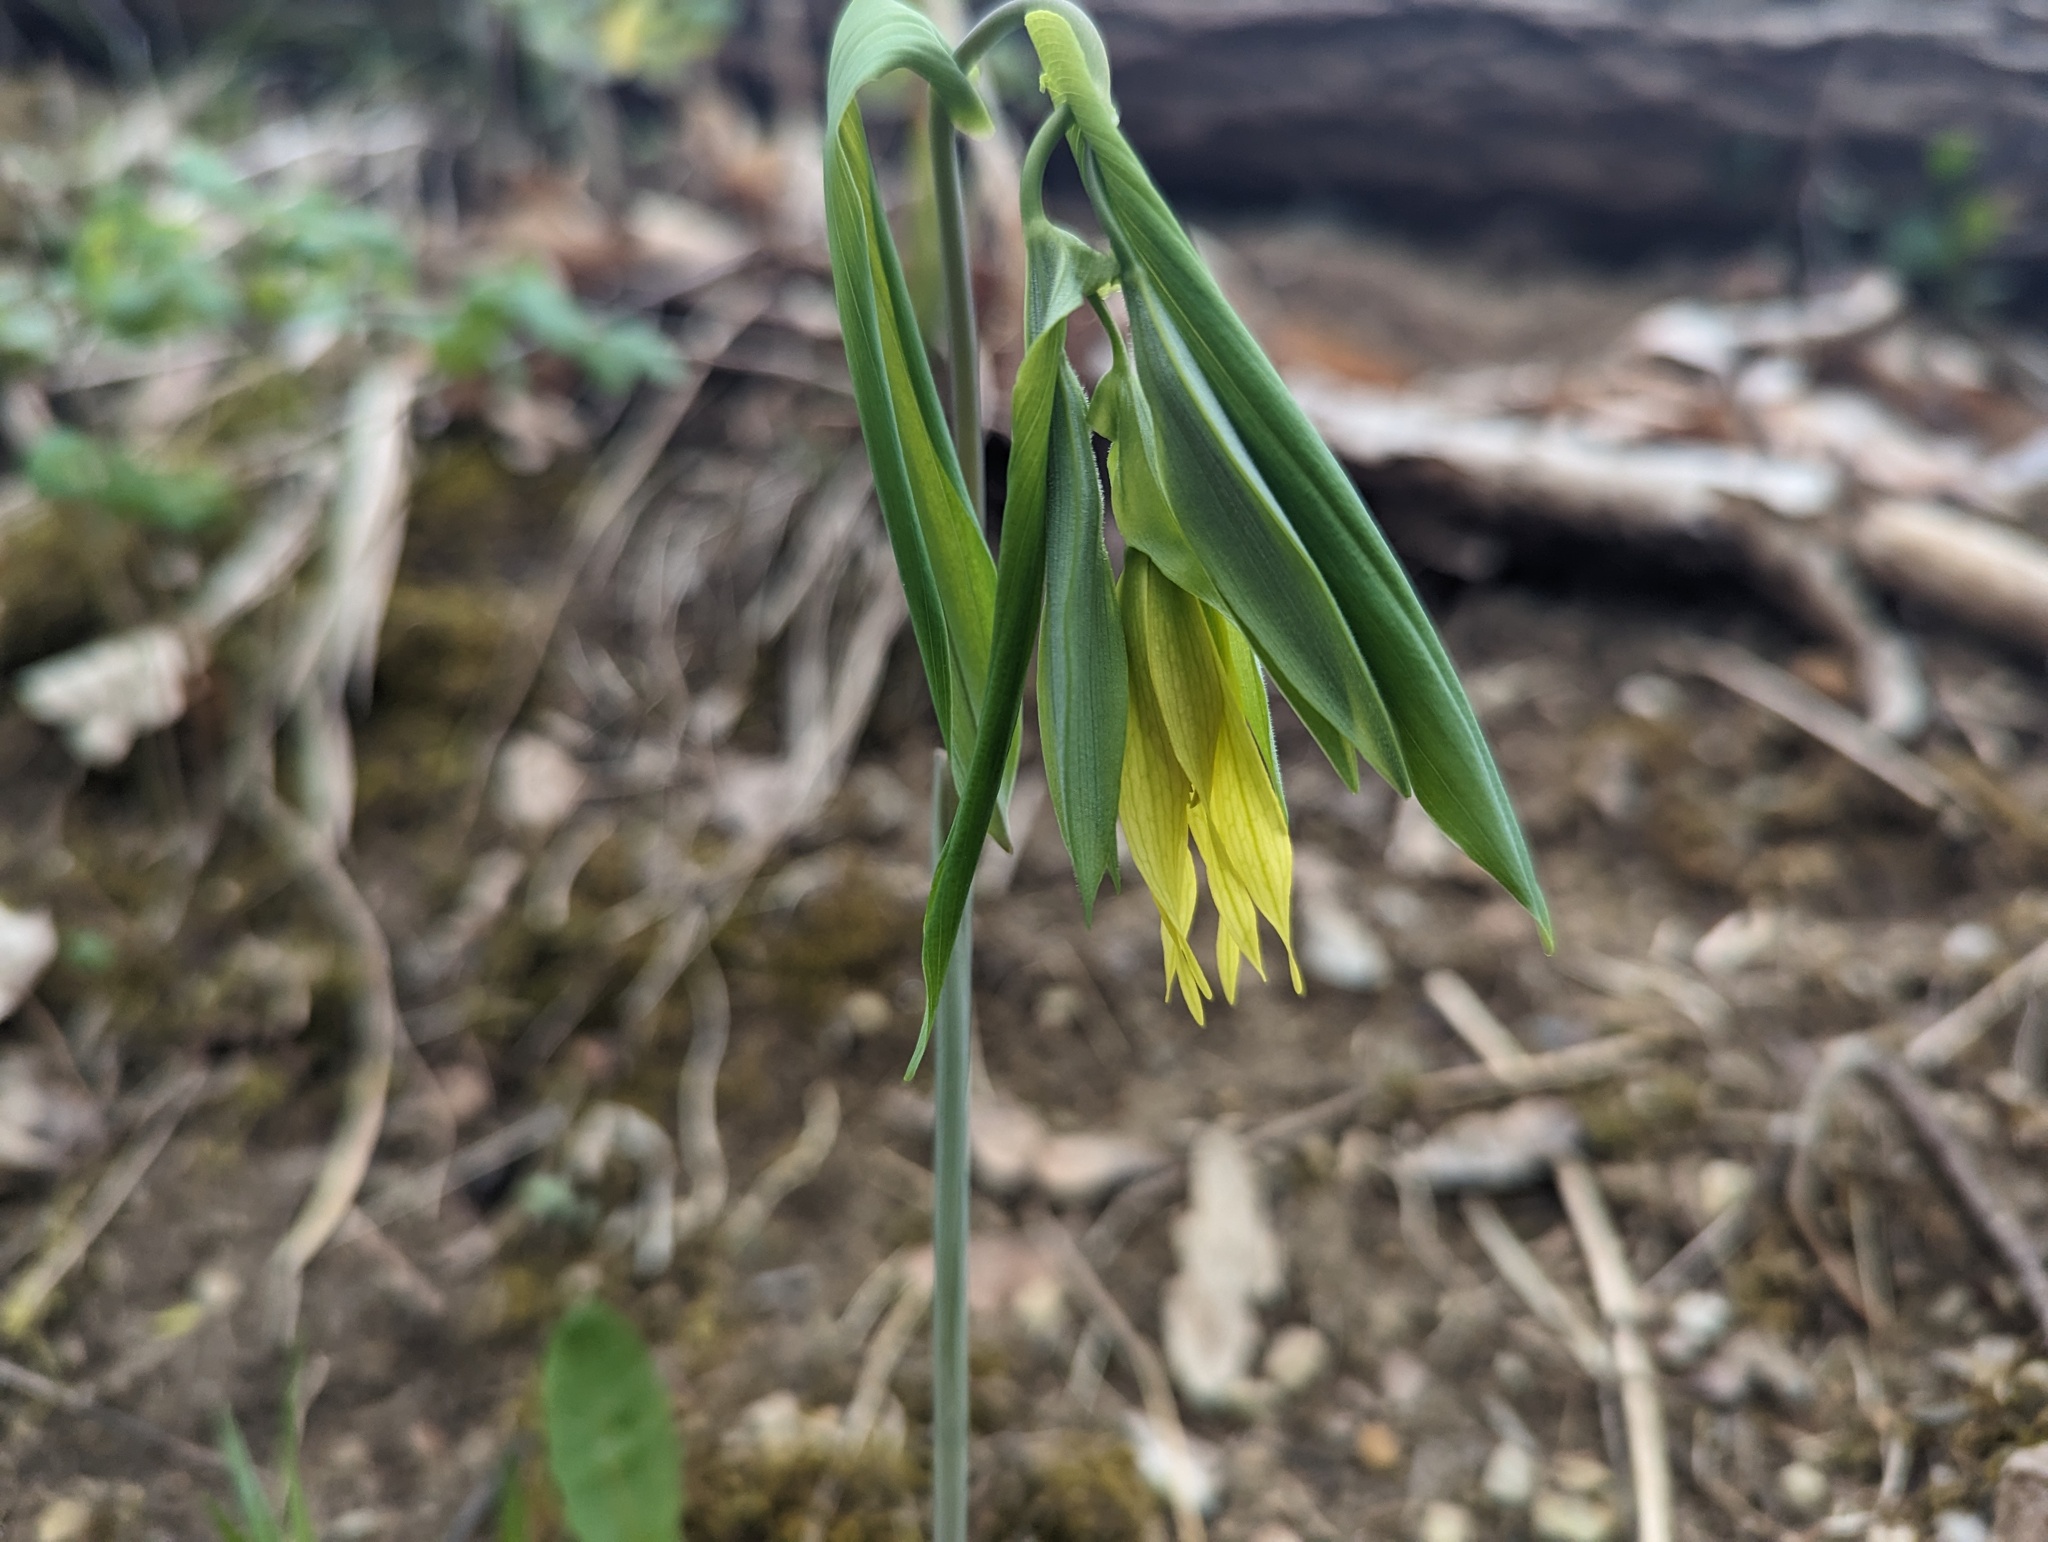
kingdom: Plantae
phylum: Tracheophyta
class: Liliopsida
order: Liliales
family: Colchicaceae
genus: Uvularia
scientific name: Uvularia grandiflora
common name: Bellwort
